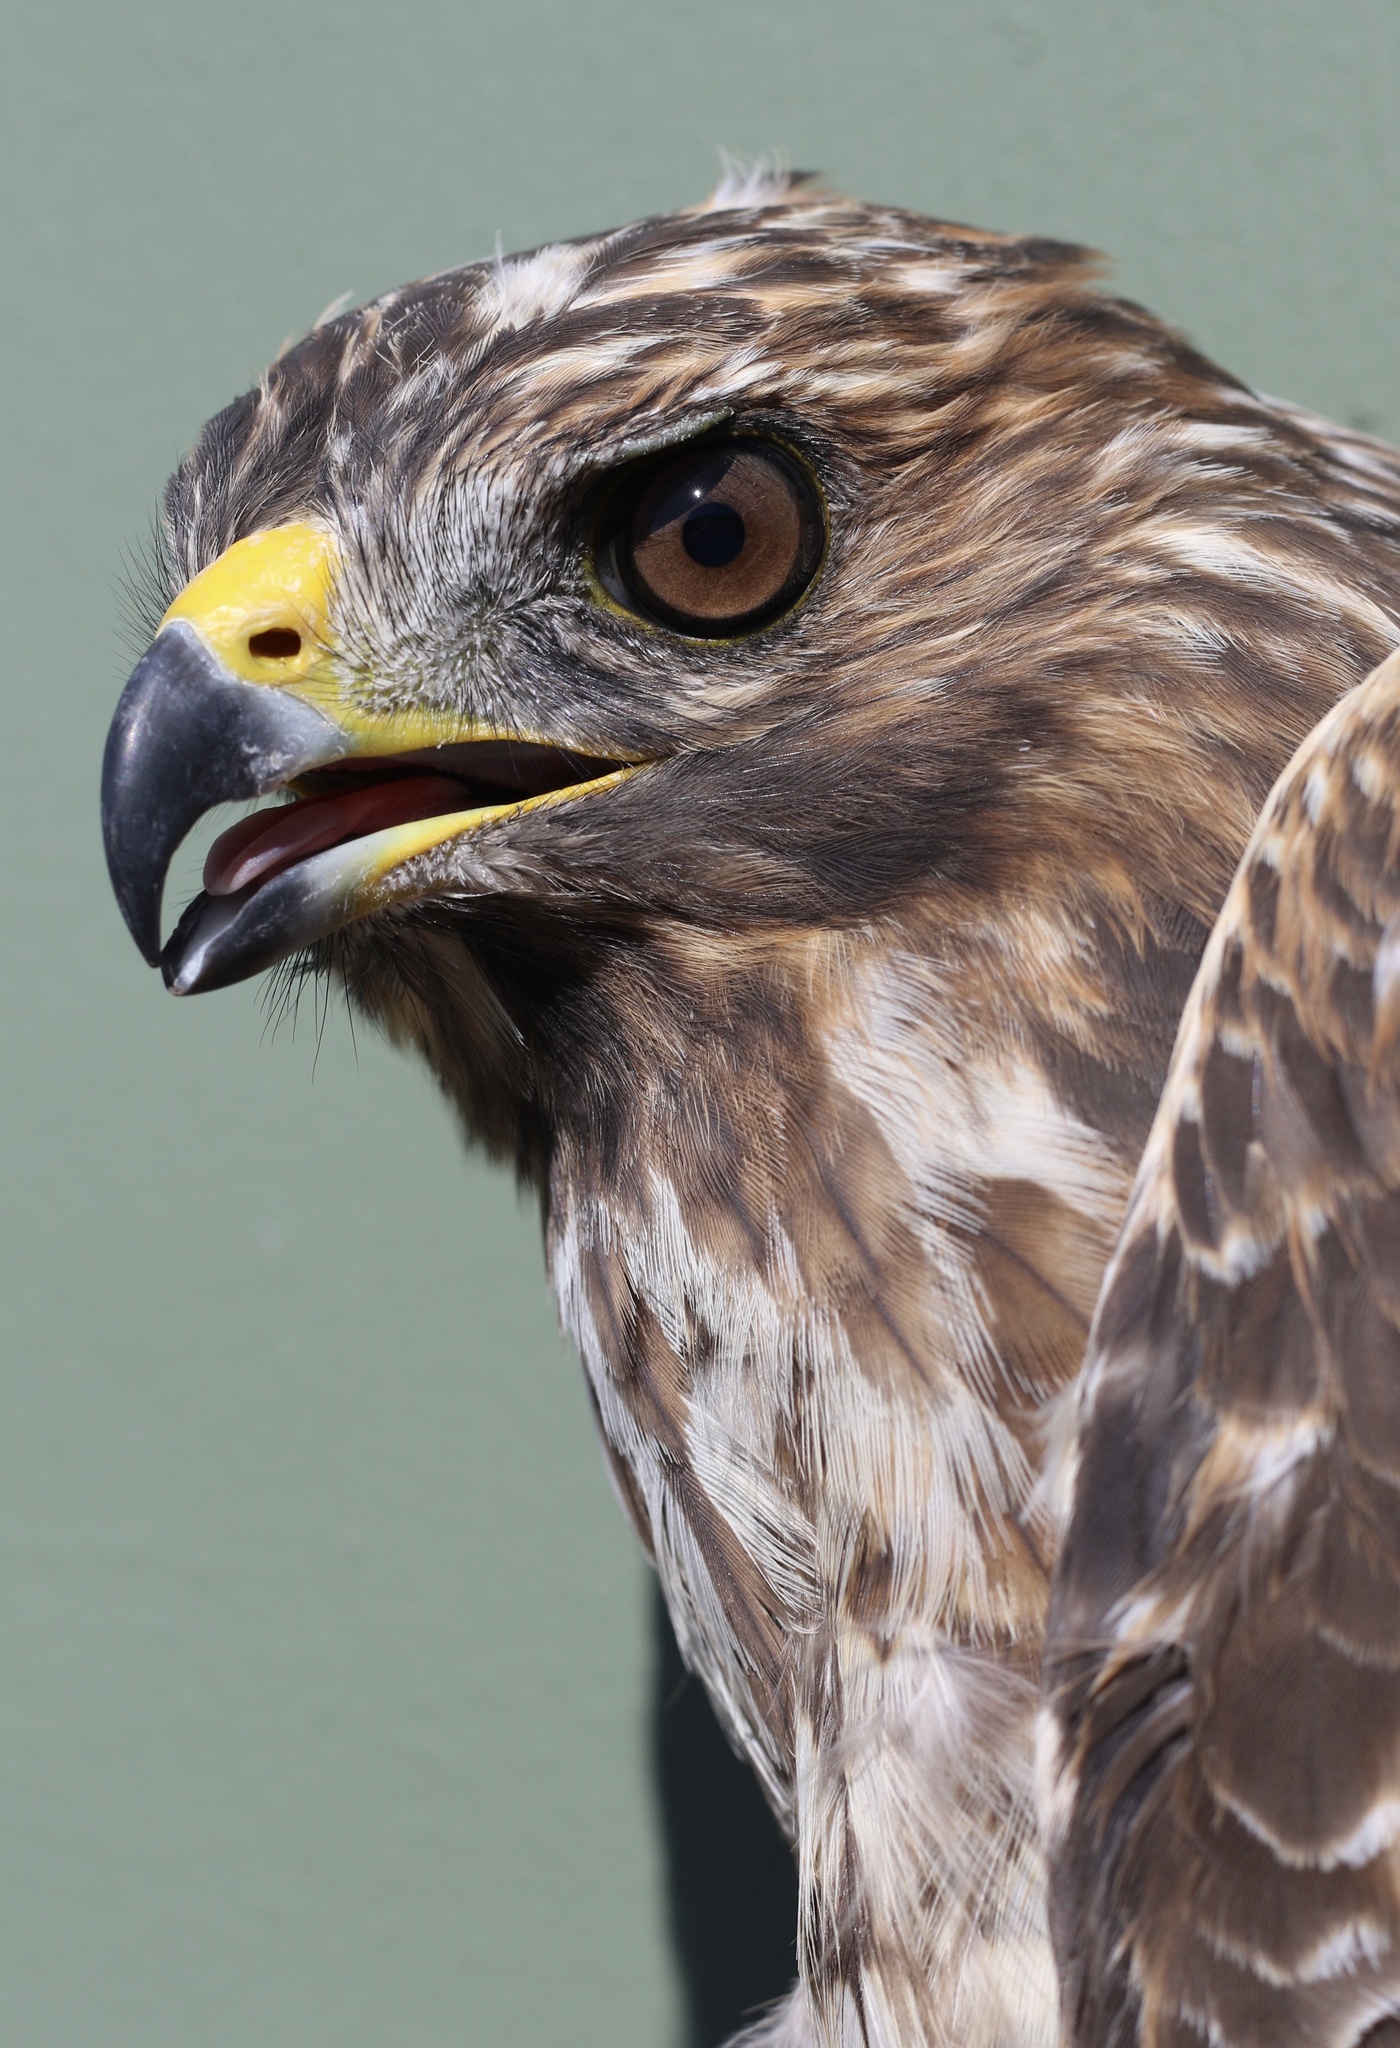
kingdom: Animalia
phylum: Chordata
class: Aves
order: Accipitriformes
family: Accipitridae
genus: Buteo
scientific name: Buteo lineatus
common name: Red-shouldered hawk
